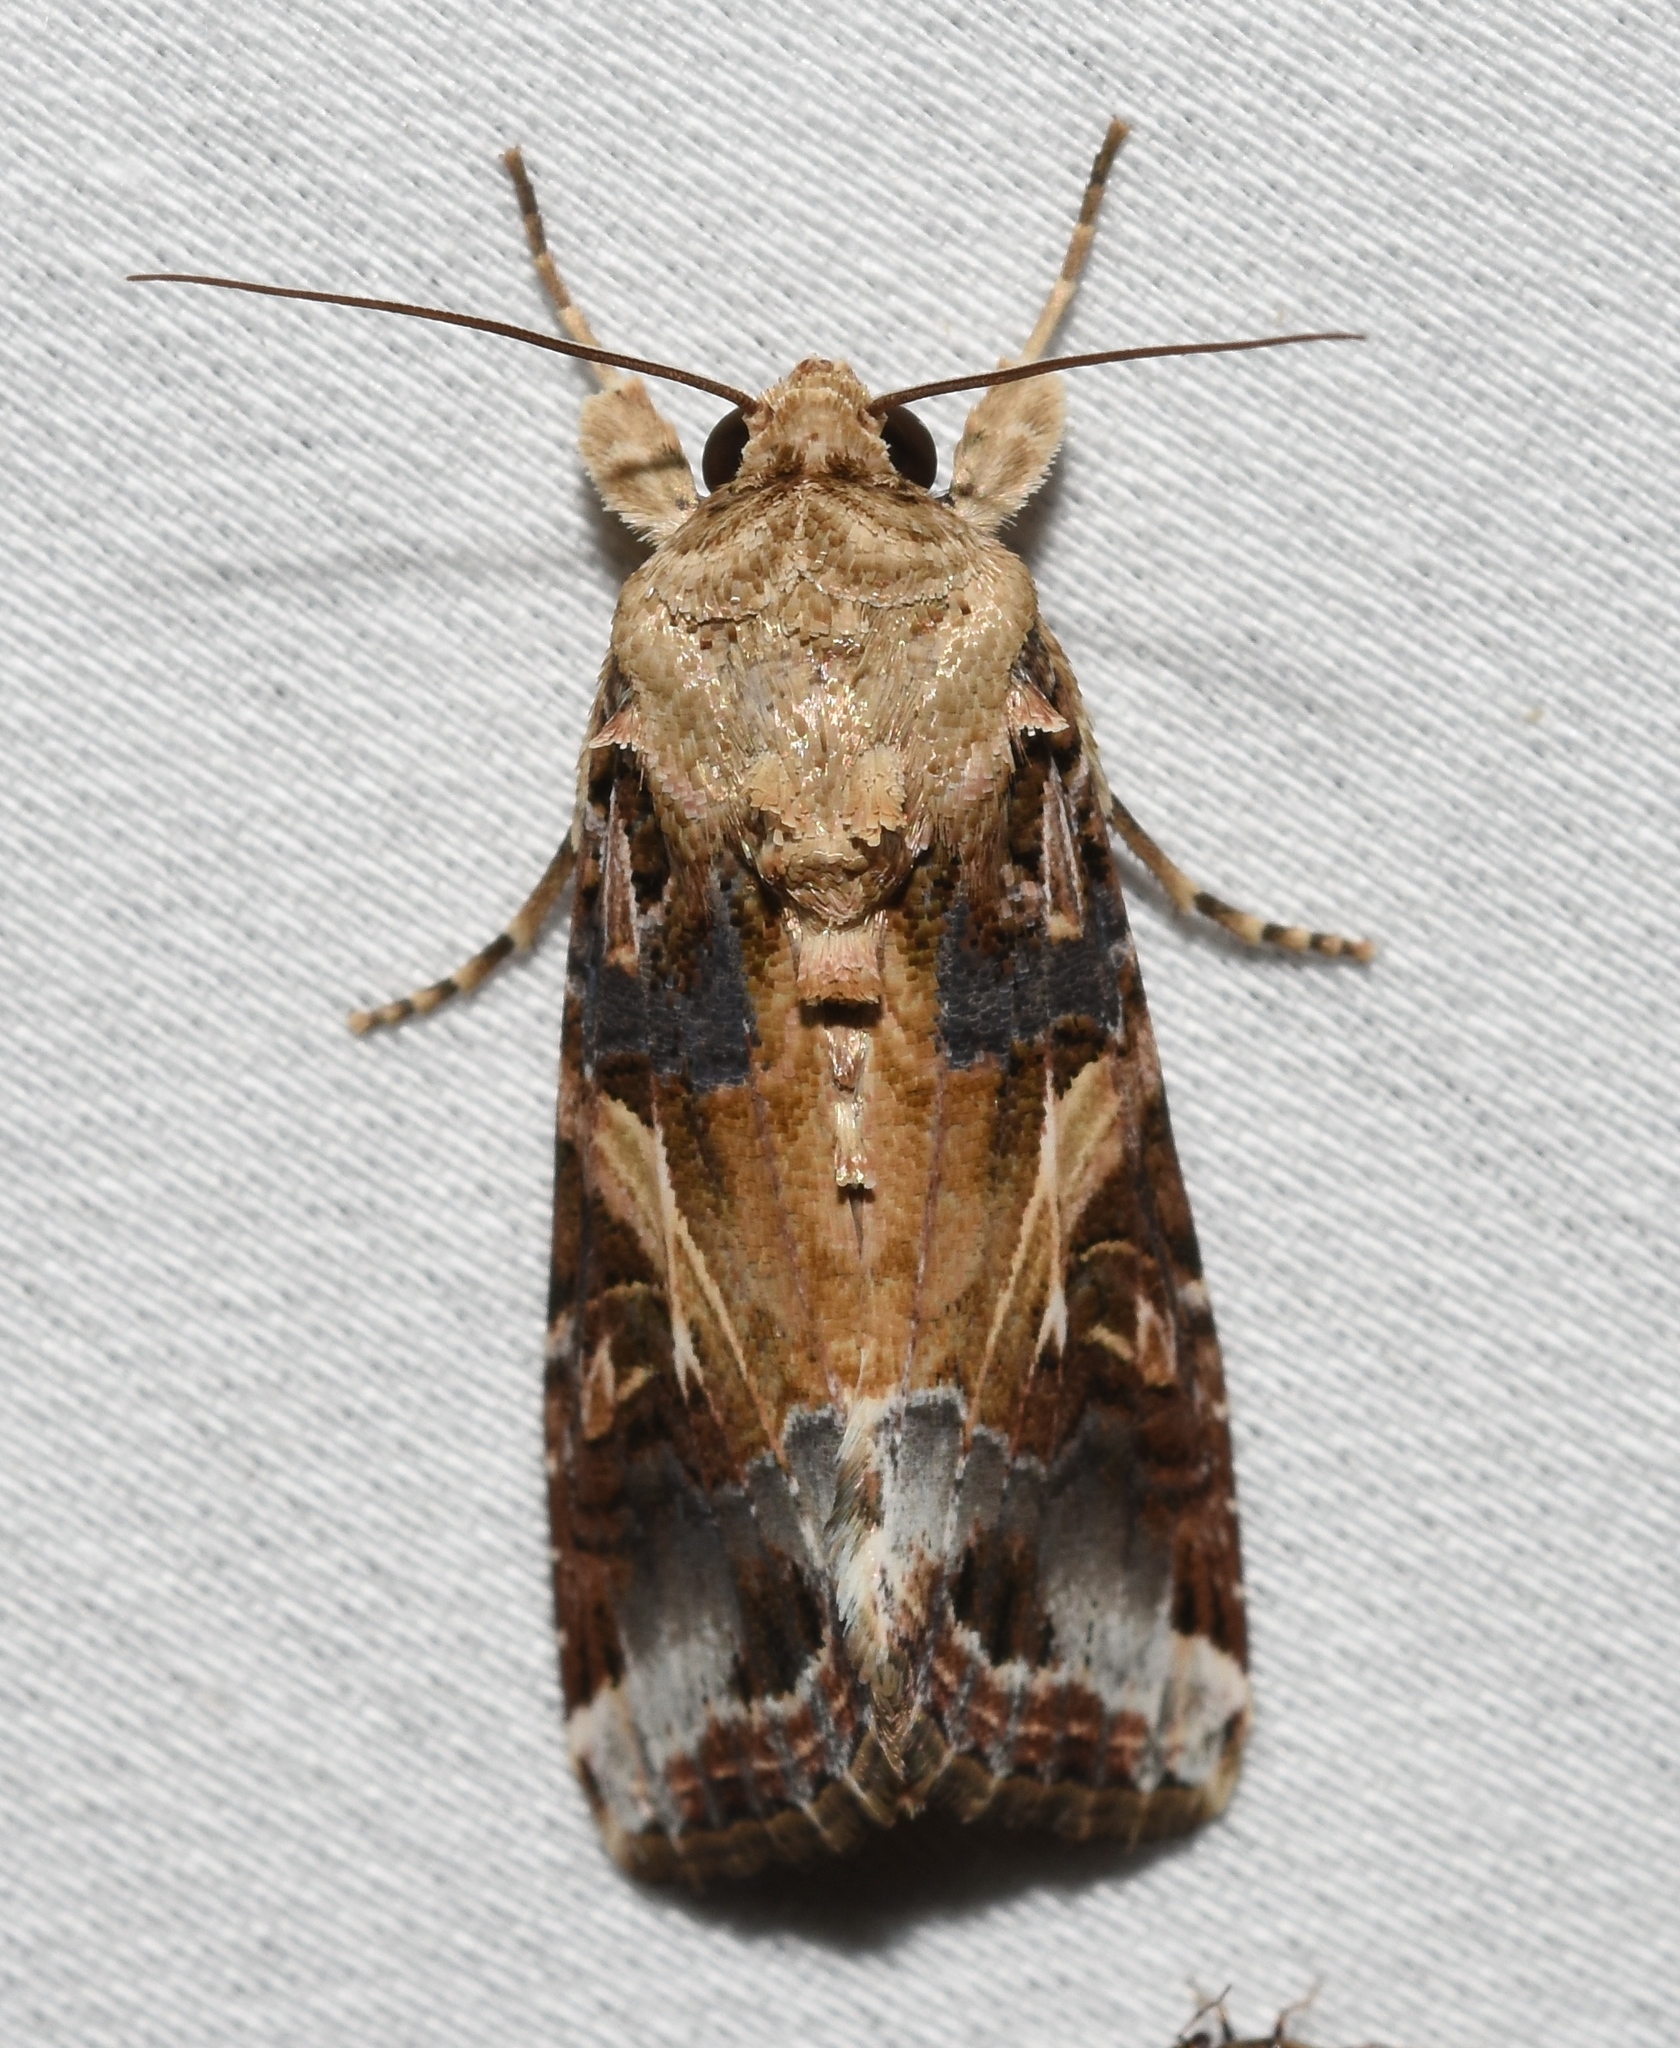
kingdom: Animalia
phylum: Arthropoda
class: Insecta
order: Lepidoptera
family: Noctuidae
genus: Spodoptera
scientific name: Spodoptera ornithogalli
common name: Yellow-striped armyworm
